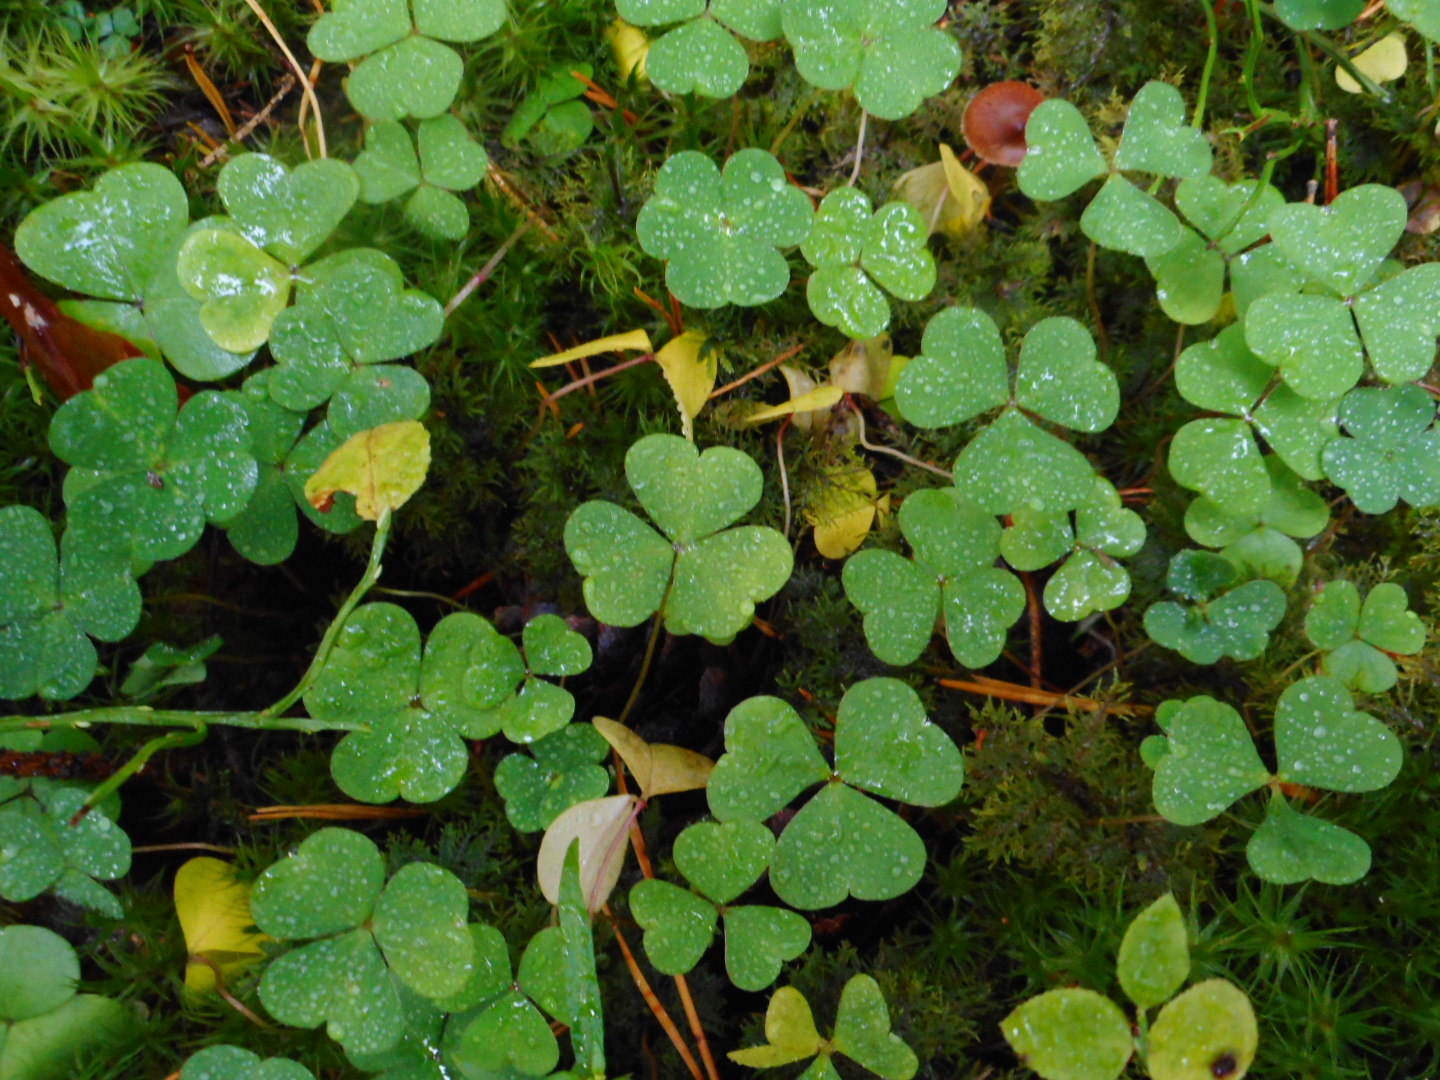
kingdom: Plantae
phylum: Tracheophyta
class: Magnoliopsida
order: Oxalidales
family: Oxalidaceae
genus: Oxalis
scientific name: Oxalis acetosella
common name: Wood-sorrel
